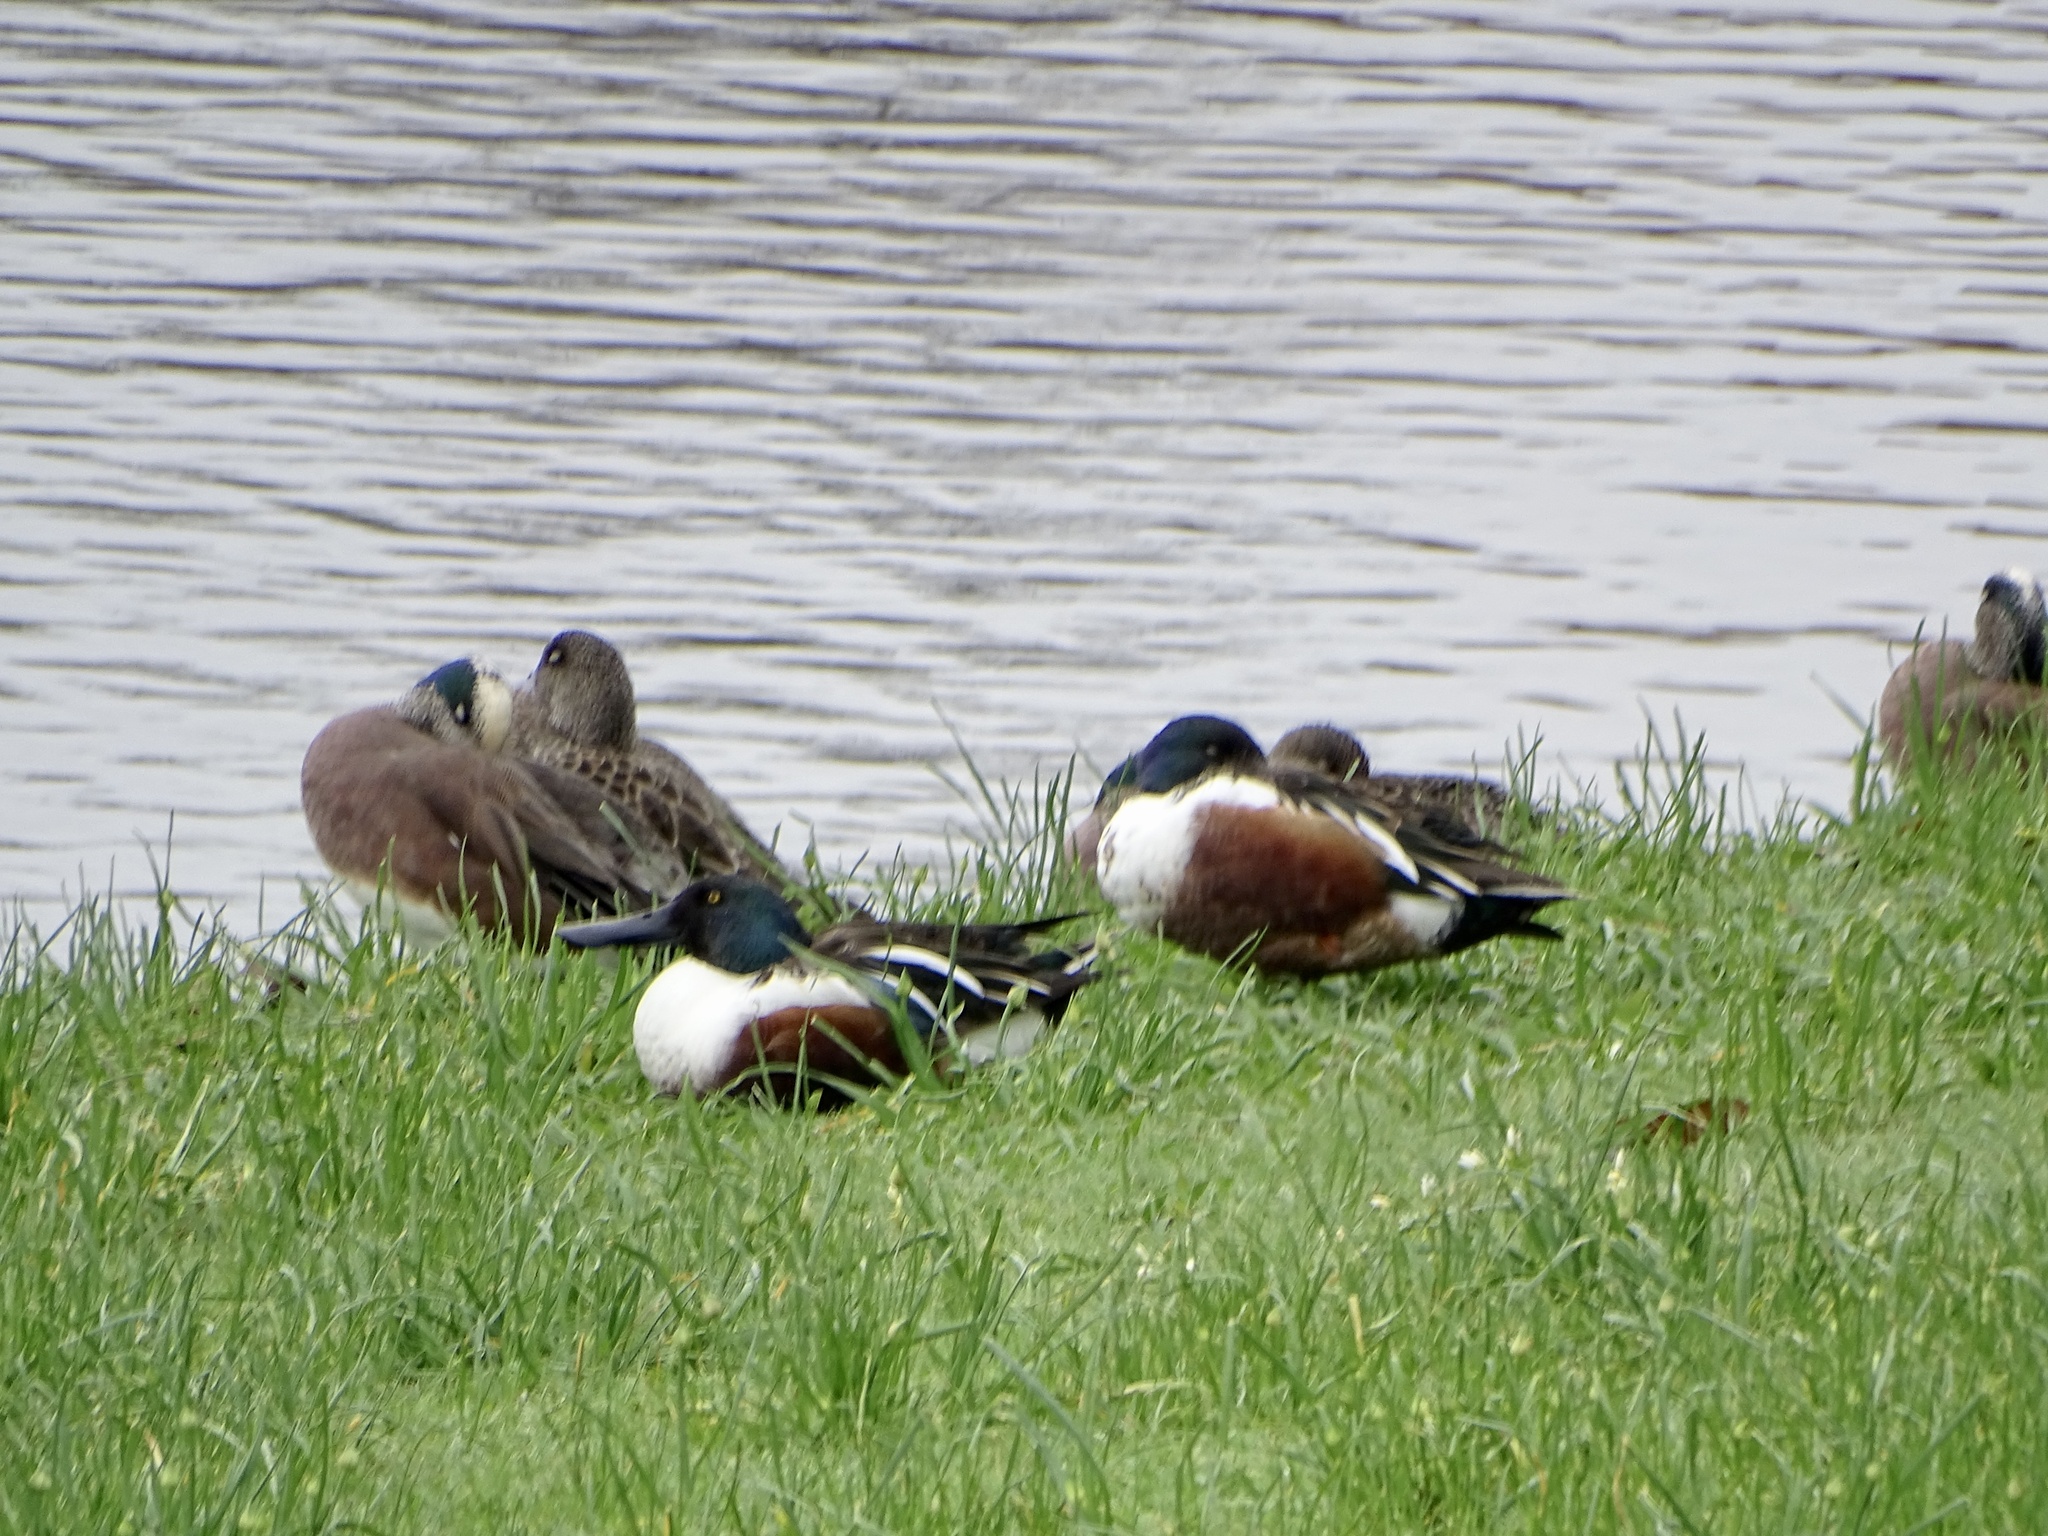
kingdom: Animalia
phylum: Chordata
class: Aves
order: Anseriformes
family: Anatidae
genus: Spatula
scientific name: Spatula clypeata
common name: Northern shoveler
